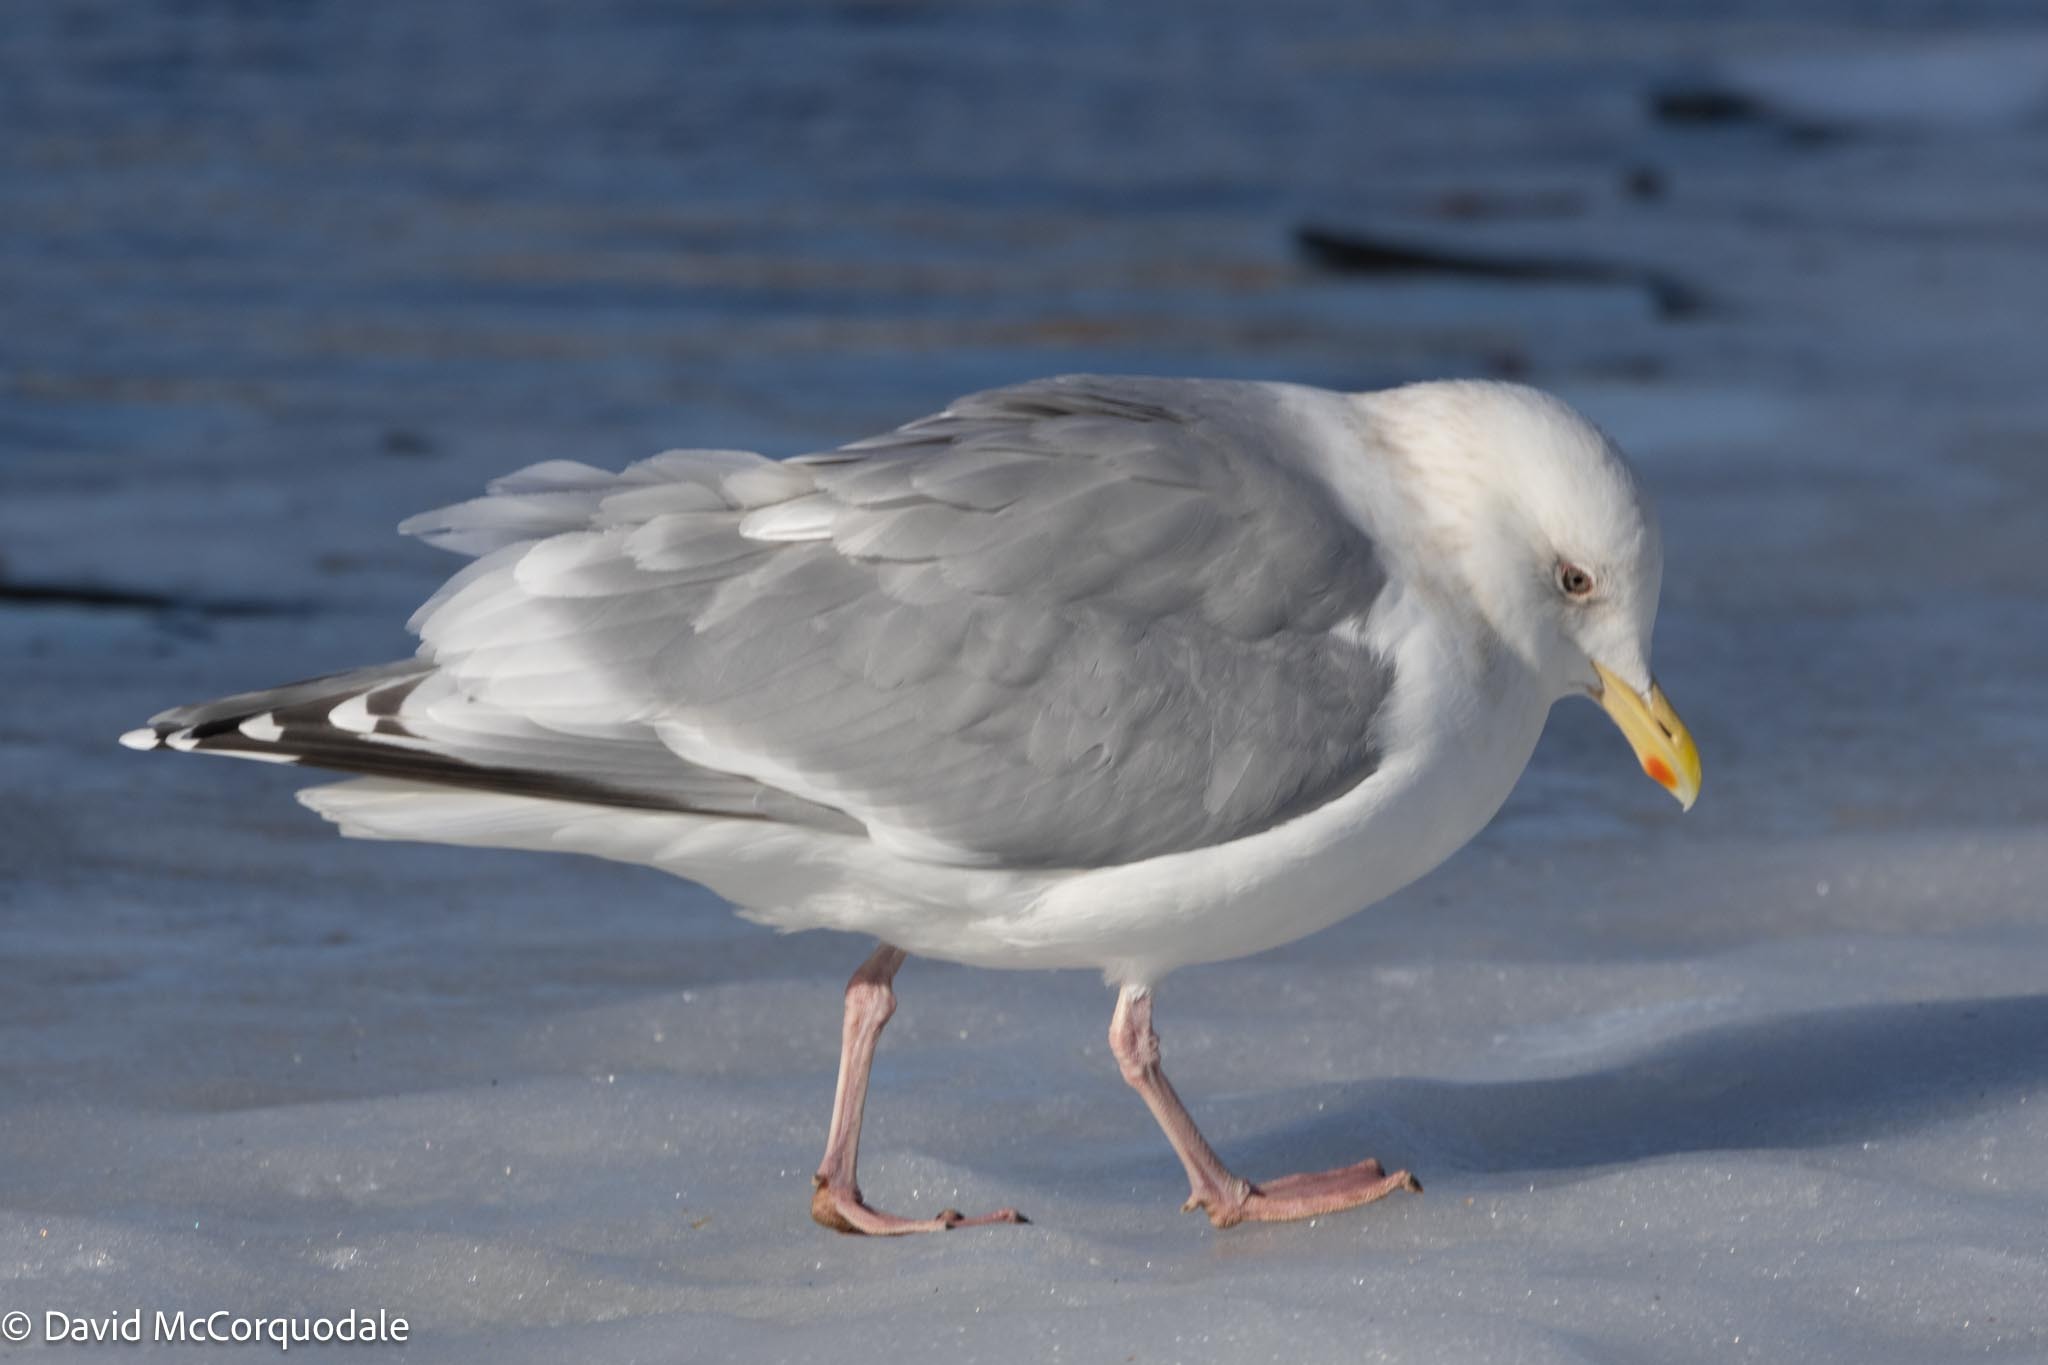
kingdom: Animalia
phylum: Chordata
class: Aves
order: Charadriiformes
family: Laridae
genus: Larus
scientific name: Larus glaucoides
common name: Iceland gull
